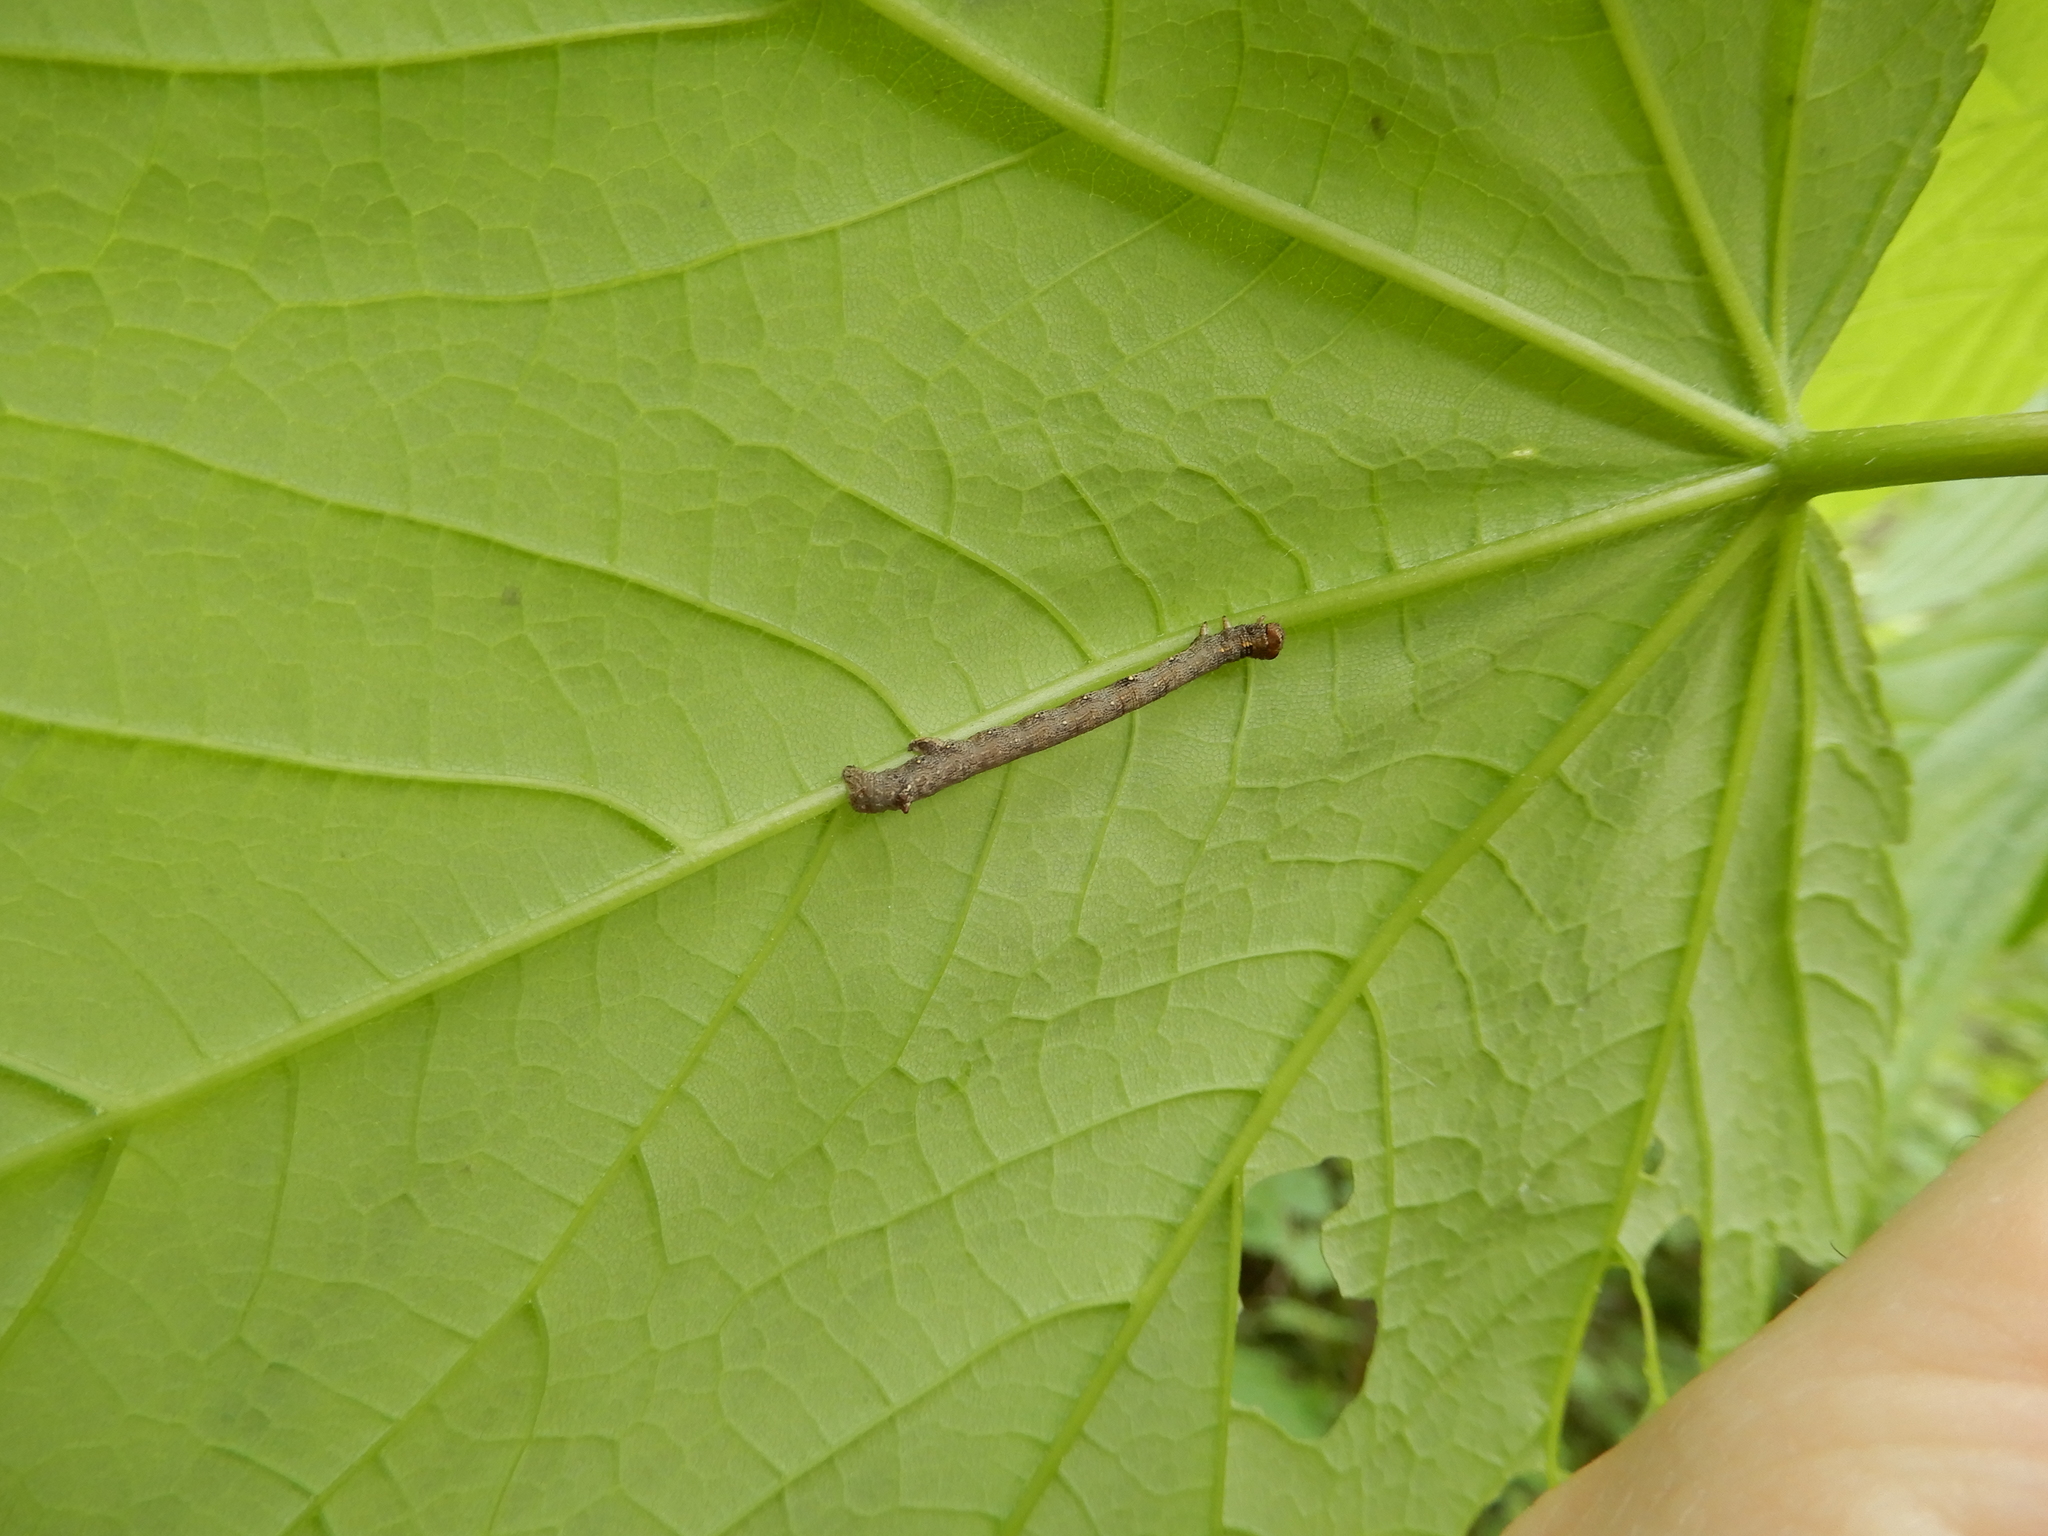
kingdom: Animalia
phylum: Arthropoda
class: Insecta
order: Lepidoptera
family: Geometridae
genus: Colotois
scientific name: Colotois pennaria
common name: Feathered thorn
